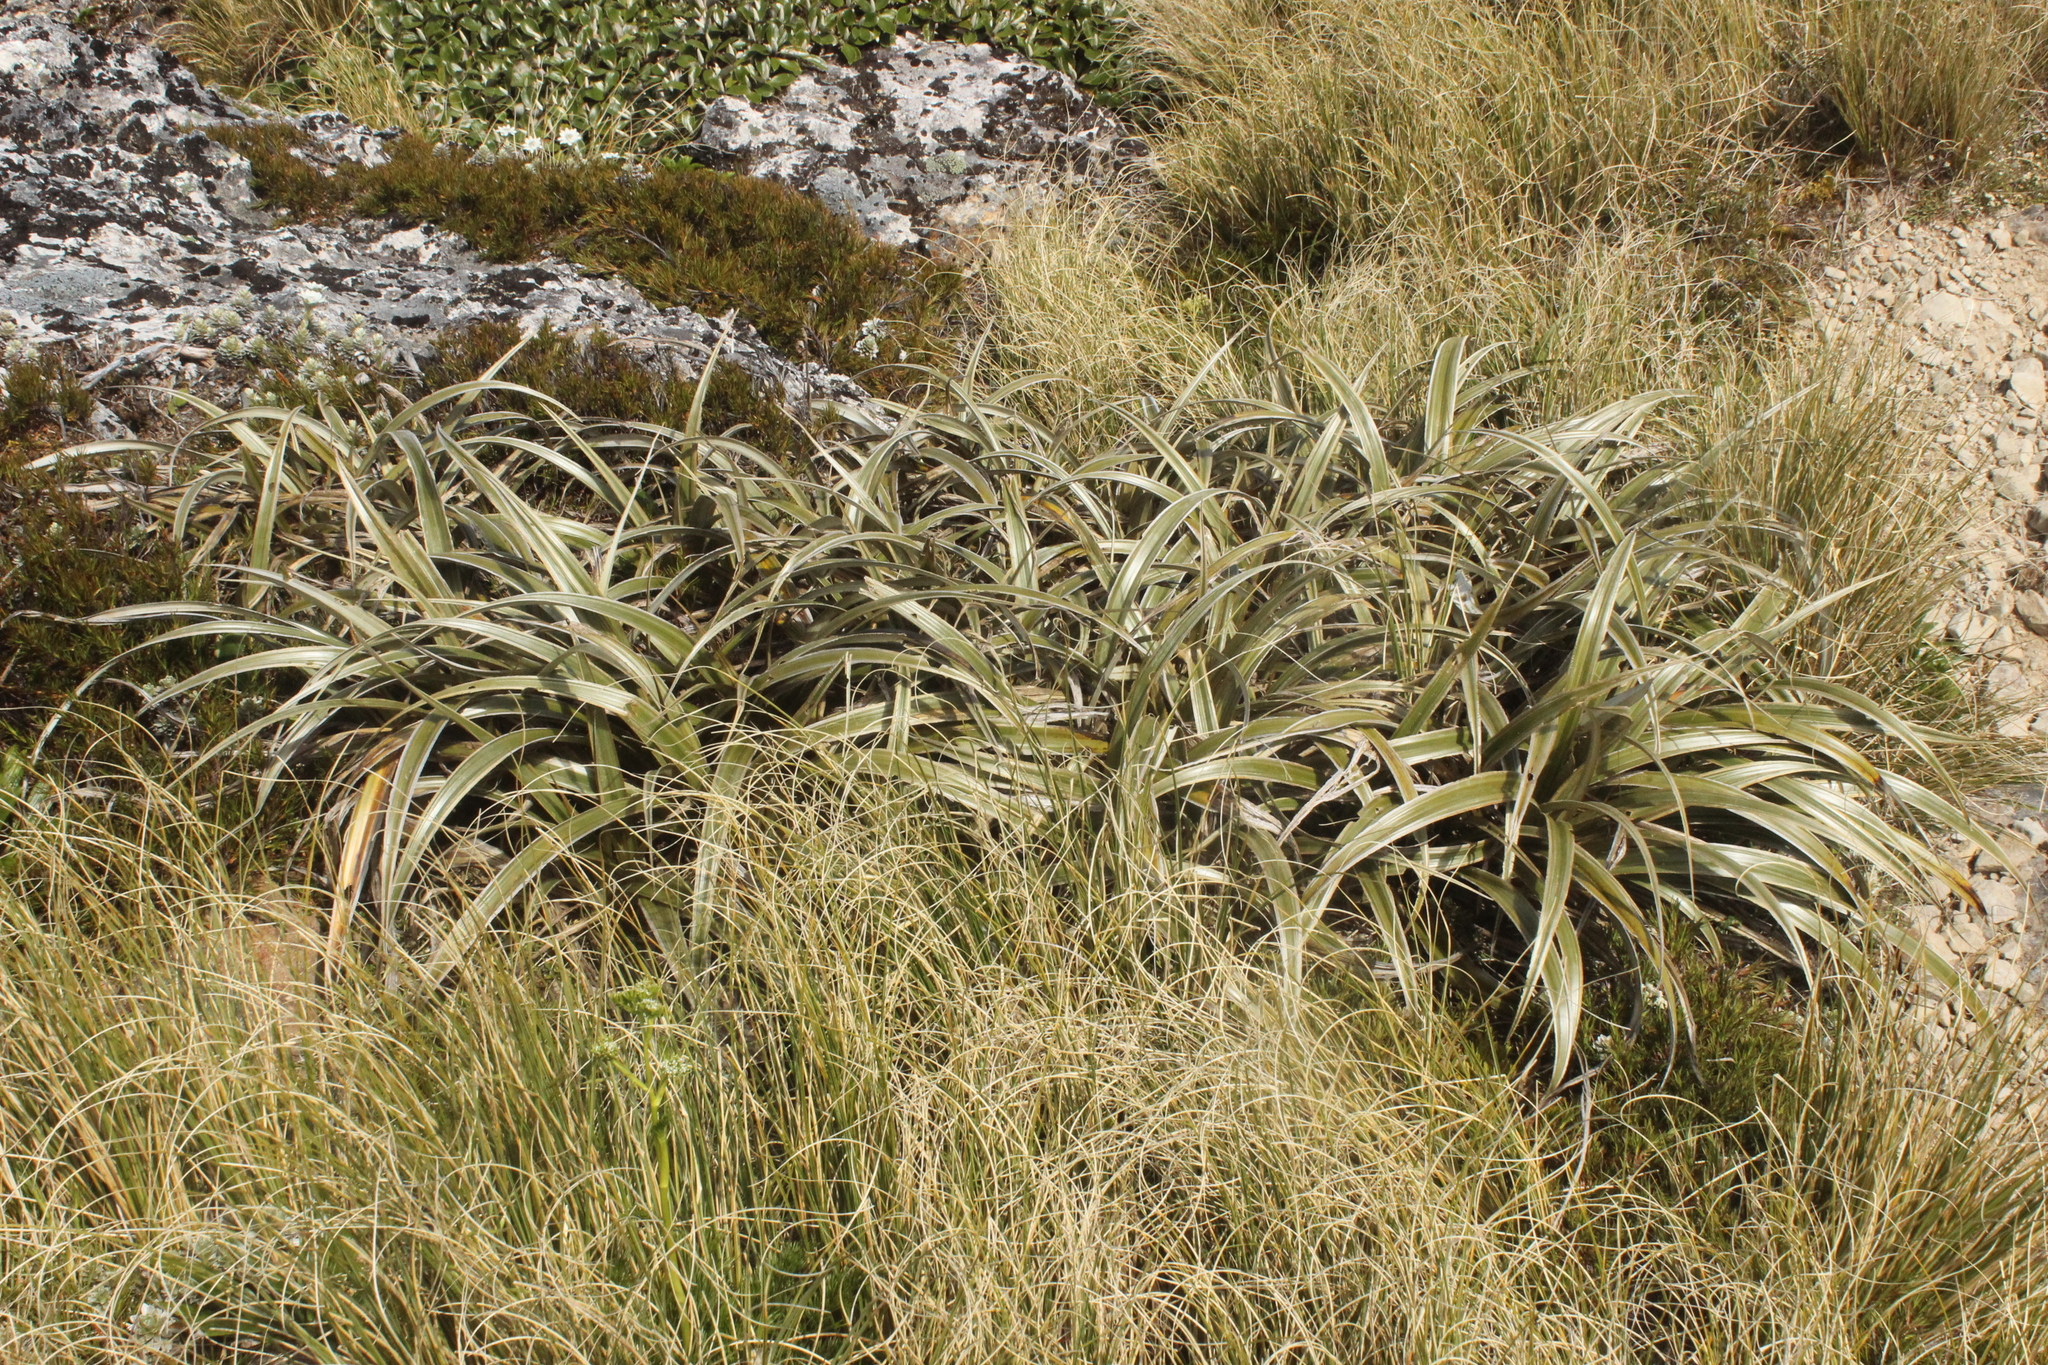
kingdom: Plantae
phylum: Tracheophyta
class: Liliopsida
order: Asparagales
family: Asteliaceae
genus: Astelia
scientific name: Astelia nervosa
